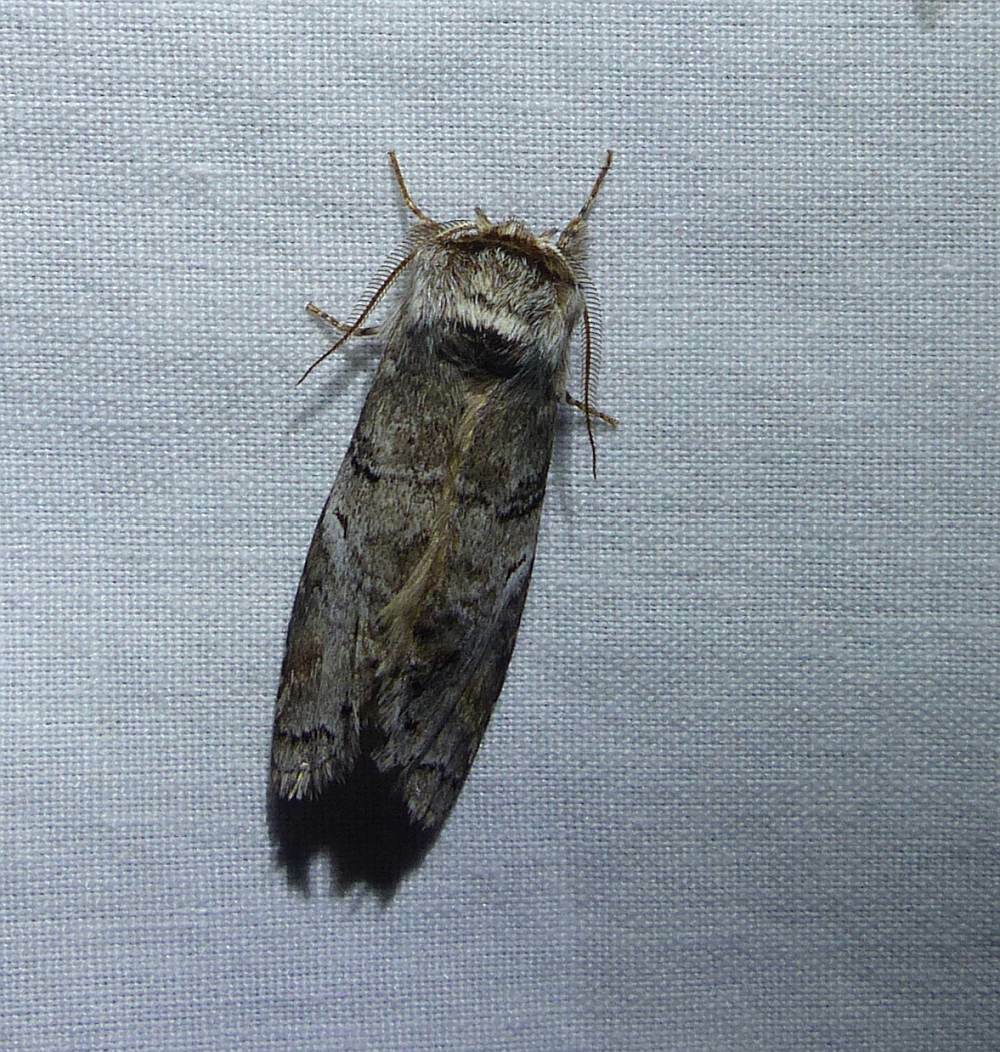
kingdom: Animalia
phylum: Arthropoda
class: Insecta
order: Lepidoptera
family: Notodontidae
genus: Ellida
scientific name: Ellida caniplaga
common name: Linden prominent
